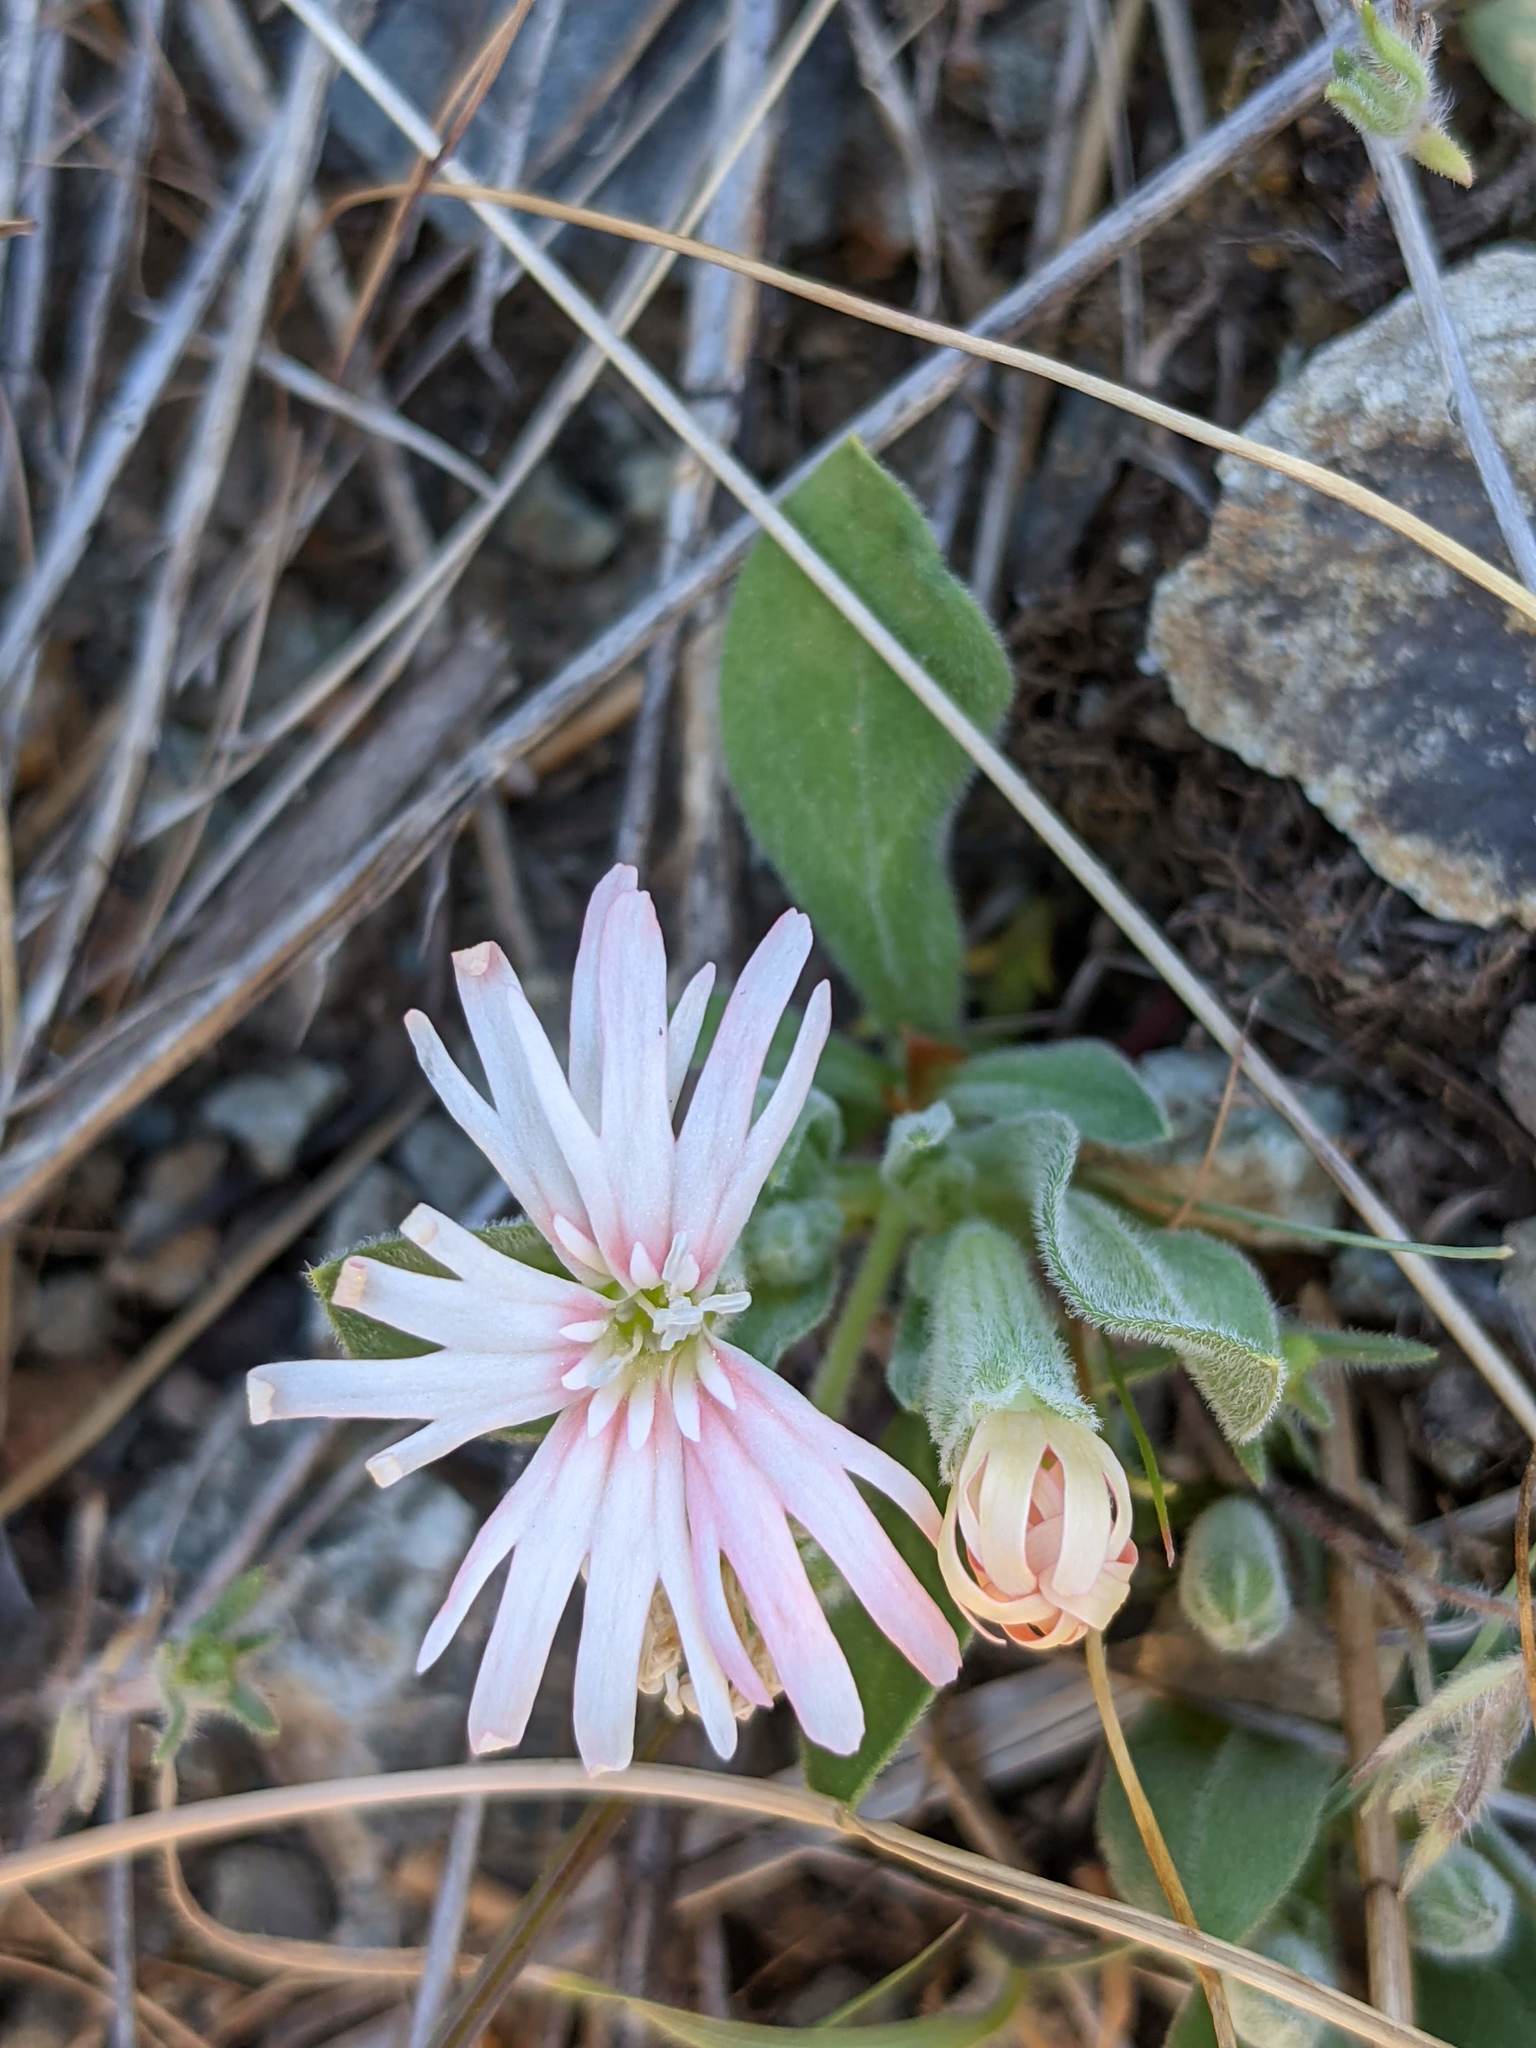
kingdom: Plantae
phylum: Tracheophyta
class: Magnoliopsida
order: Caryophyllales
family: Caryophyllaceae
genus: Silene
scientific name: Silene hookeri
